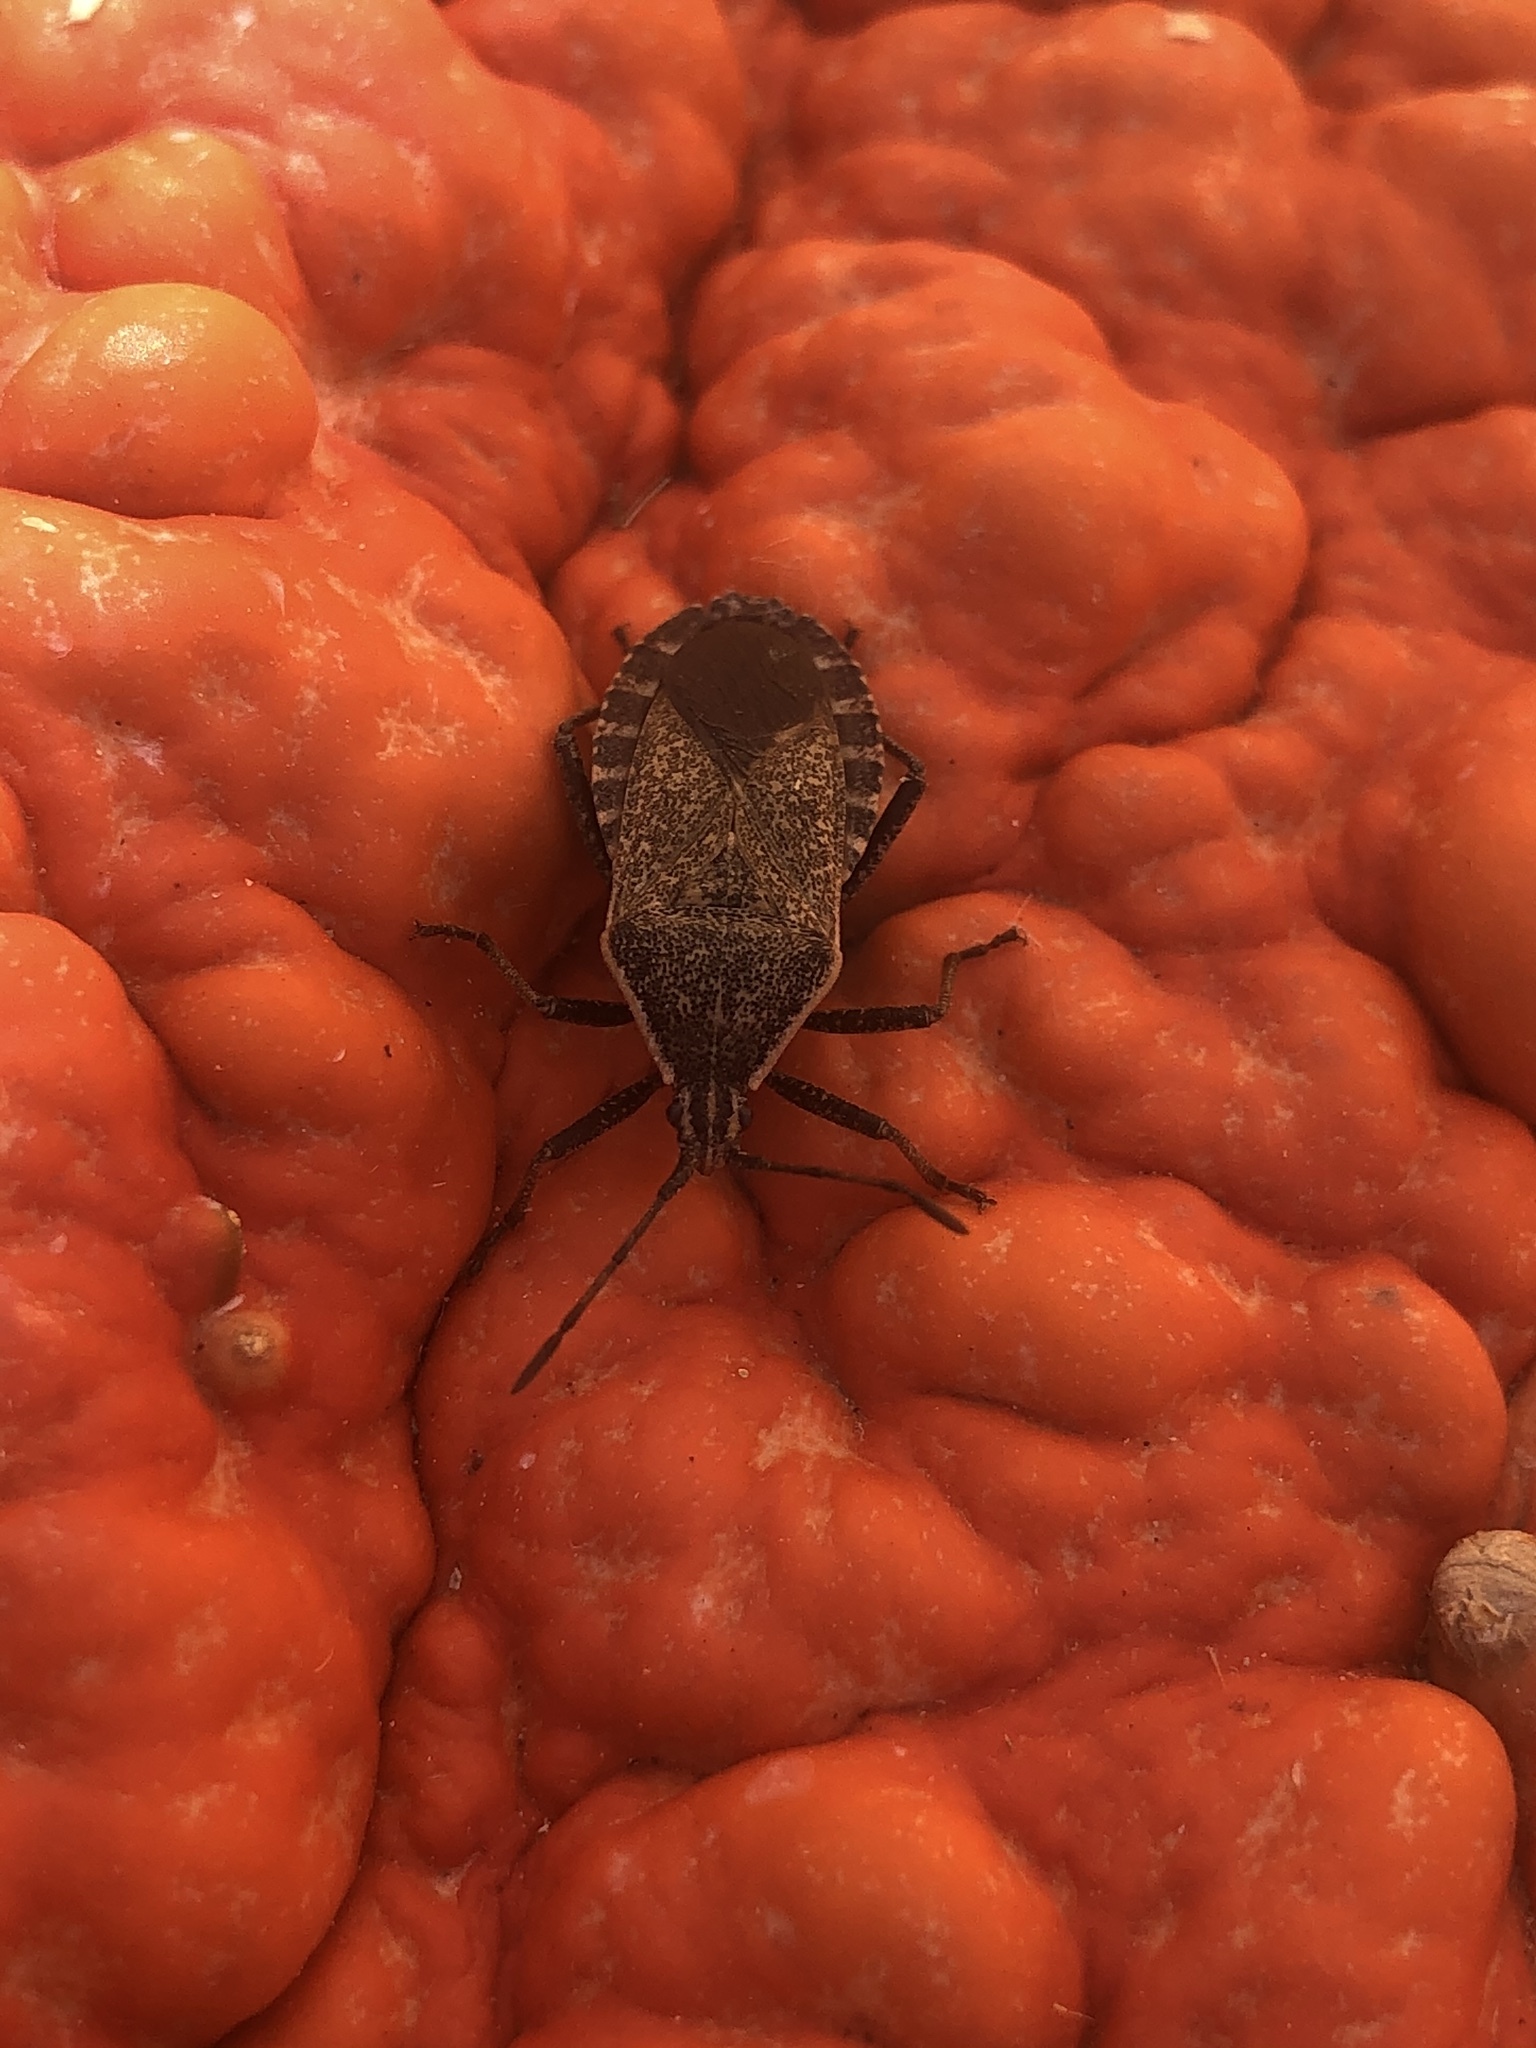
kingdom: Animalia
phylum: Arthropoda
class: Insecta
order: Hemiptera
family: Coreidae
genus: Anasa
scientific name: Anasa tristis
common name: Squash bug
